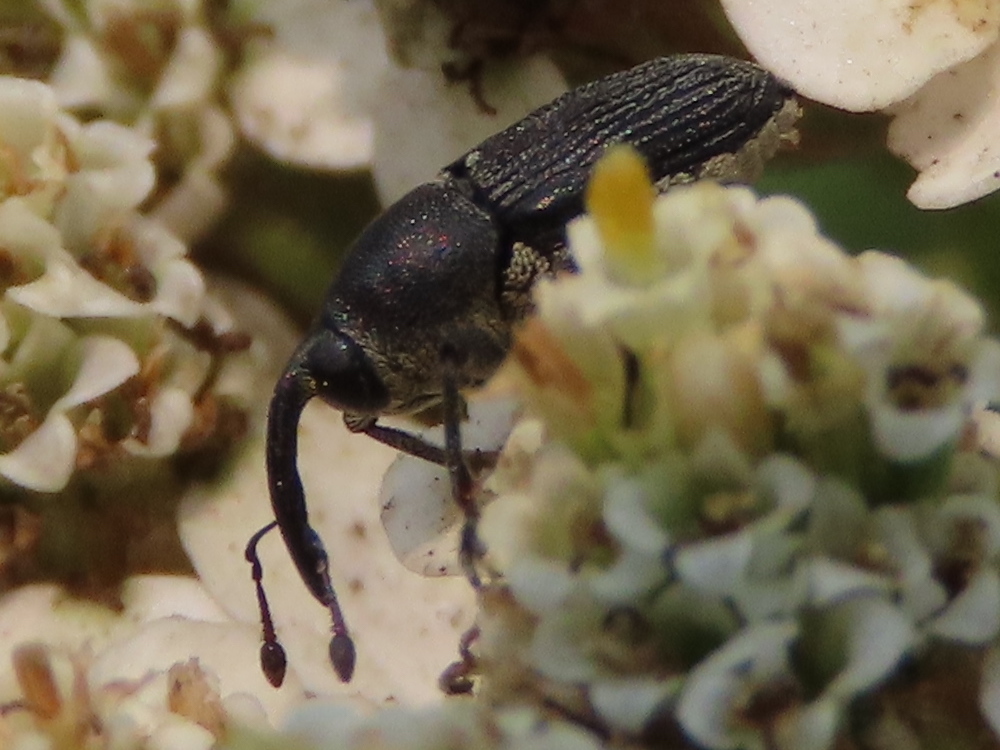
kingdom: Animalia
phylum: Arthropoda
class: Insecta
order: Coleoptera
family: Curculionidae
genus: Odontocorynus
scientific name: Odontocorynus salebrosus
